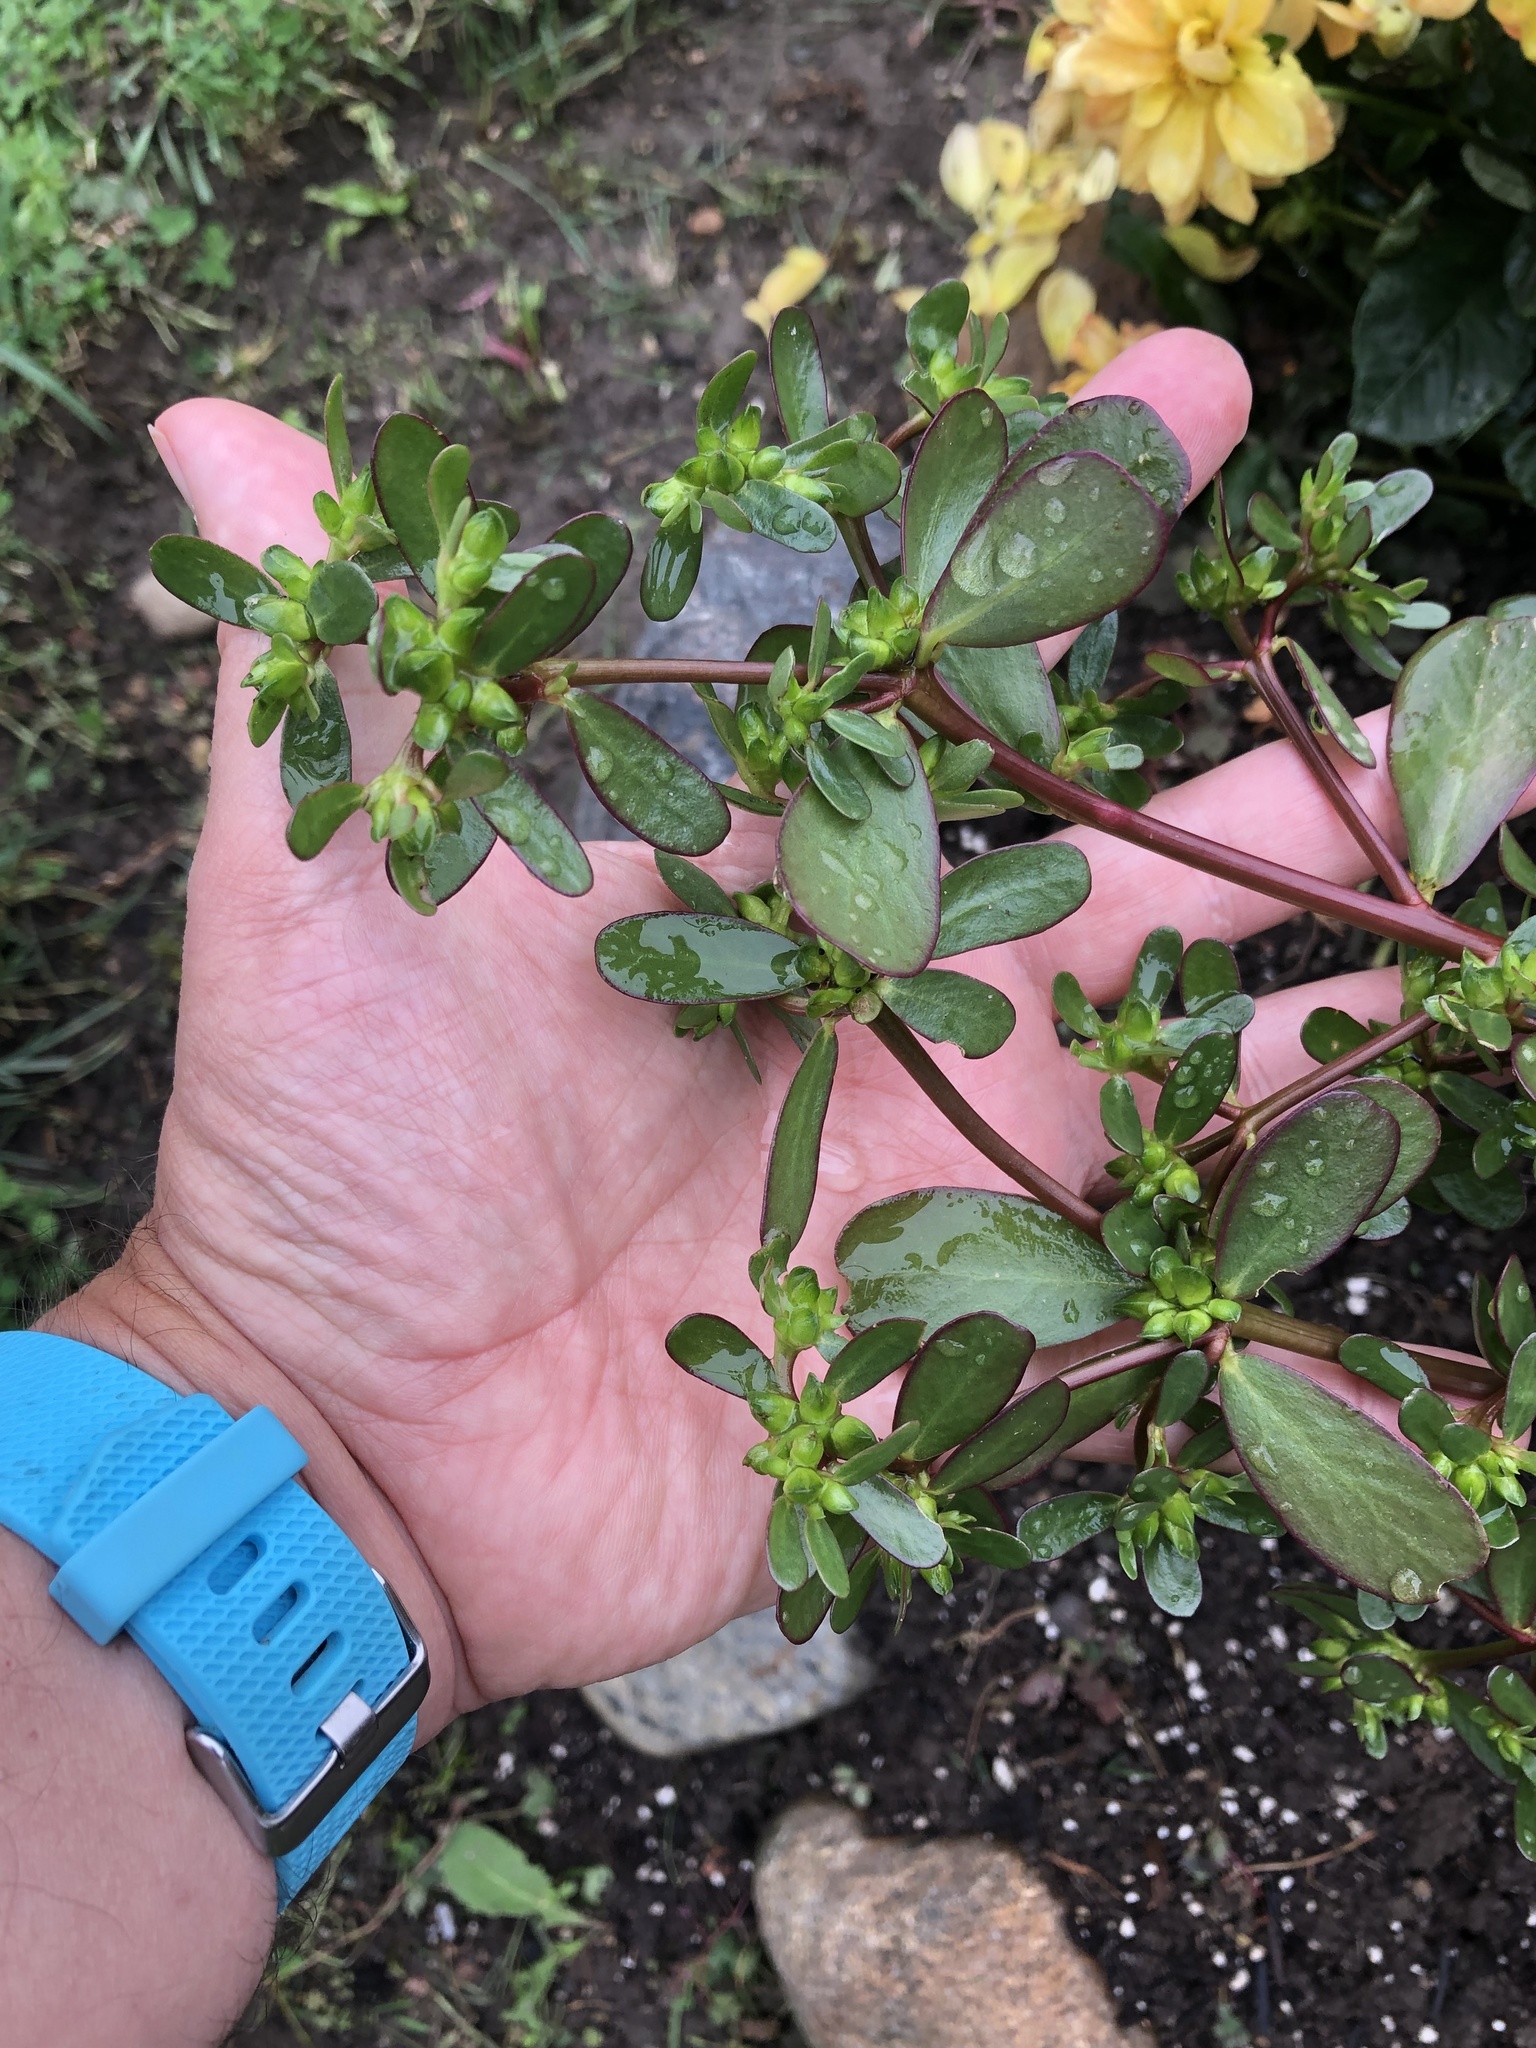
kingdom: Plantae
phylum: Tracheophyta
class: Magnoliopsida
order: Caryophyllales
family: Portulacaceae
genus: Portulaca
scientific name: Portulaca oleracea
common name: Common purslane
